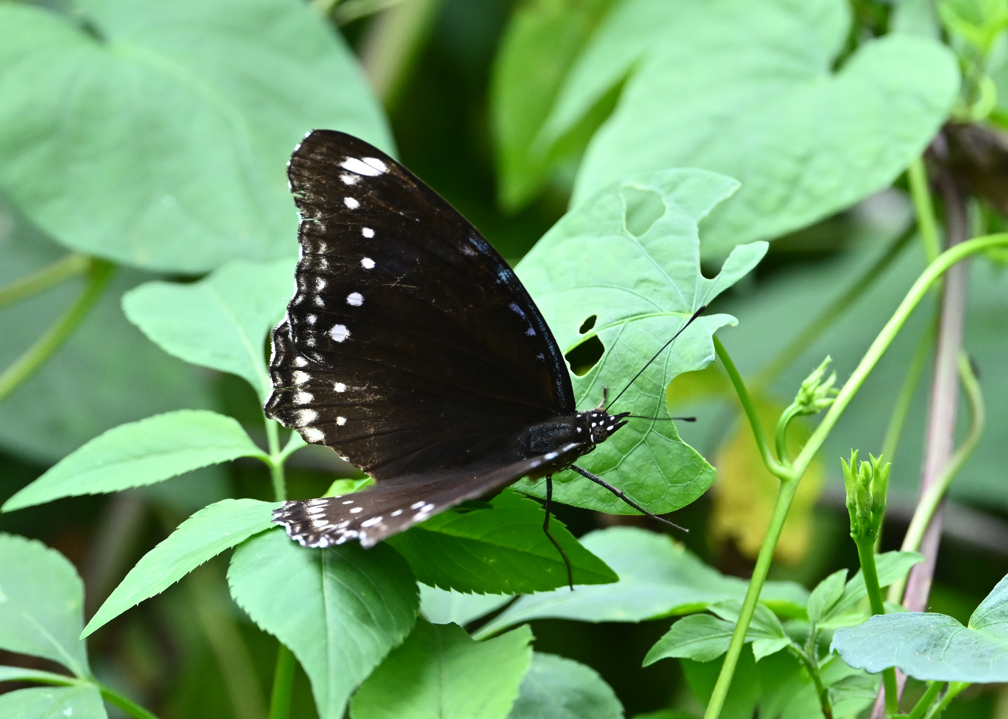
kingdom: Animalia
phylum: Arthropoda
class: Insecta
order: Lepidoptera
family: Nymphalidae
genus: Hypolimnas
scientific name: Hypolimnas bolina
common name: Great eggfly
